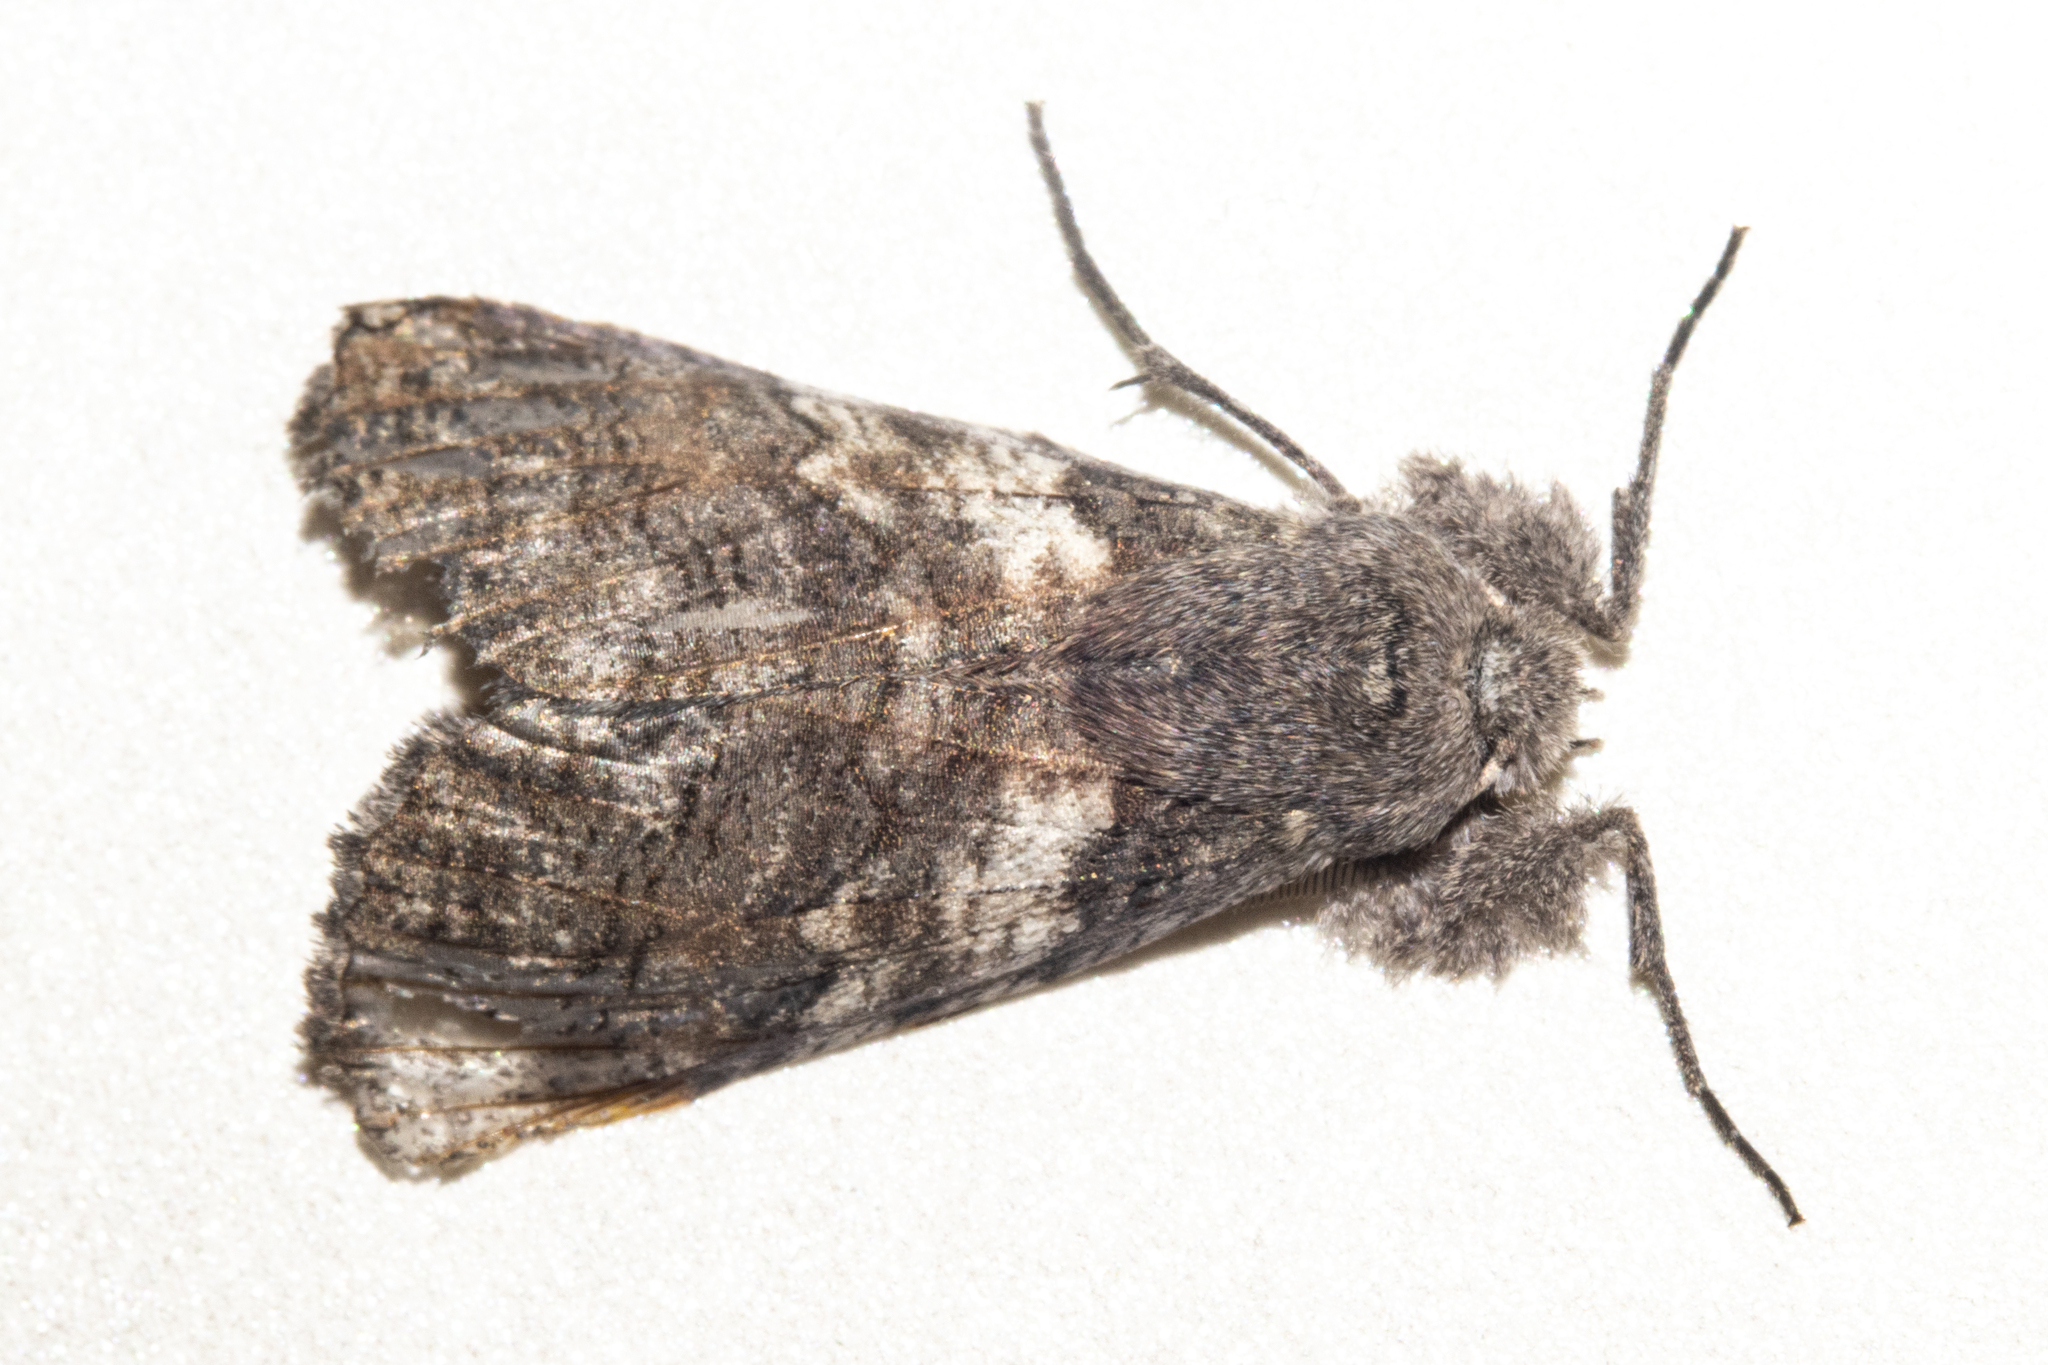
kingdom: Animalia
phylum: Arthropoda
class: Insecta
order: Lepidoptera
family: Geometridae
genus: Declana
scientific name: Declana
